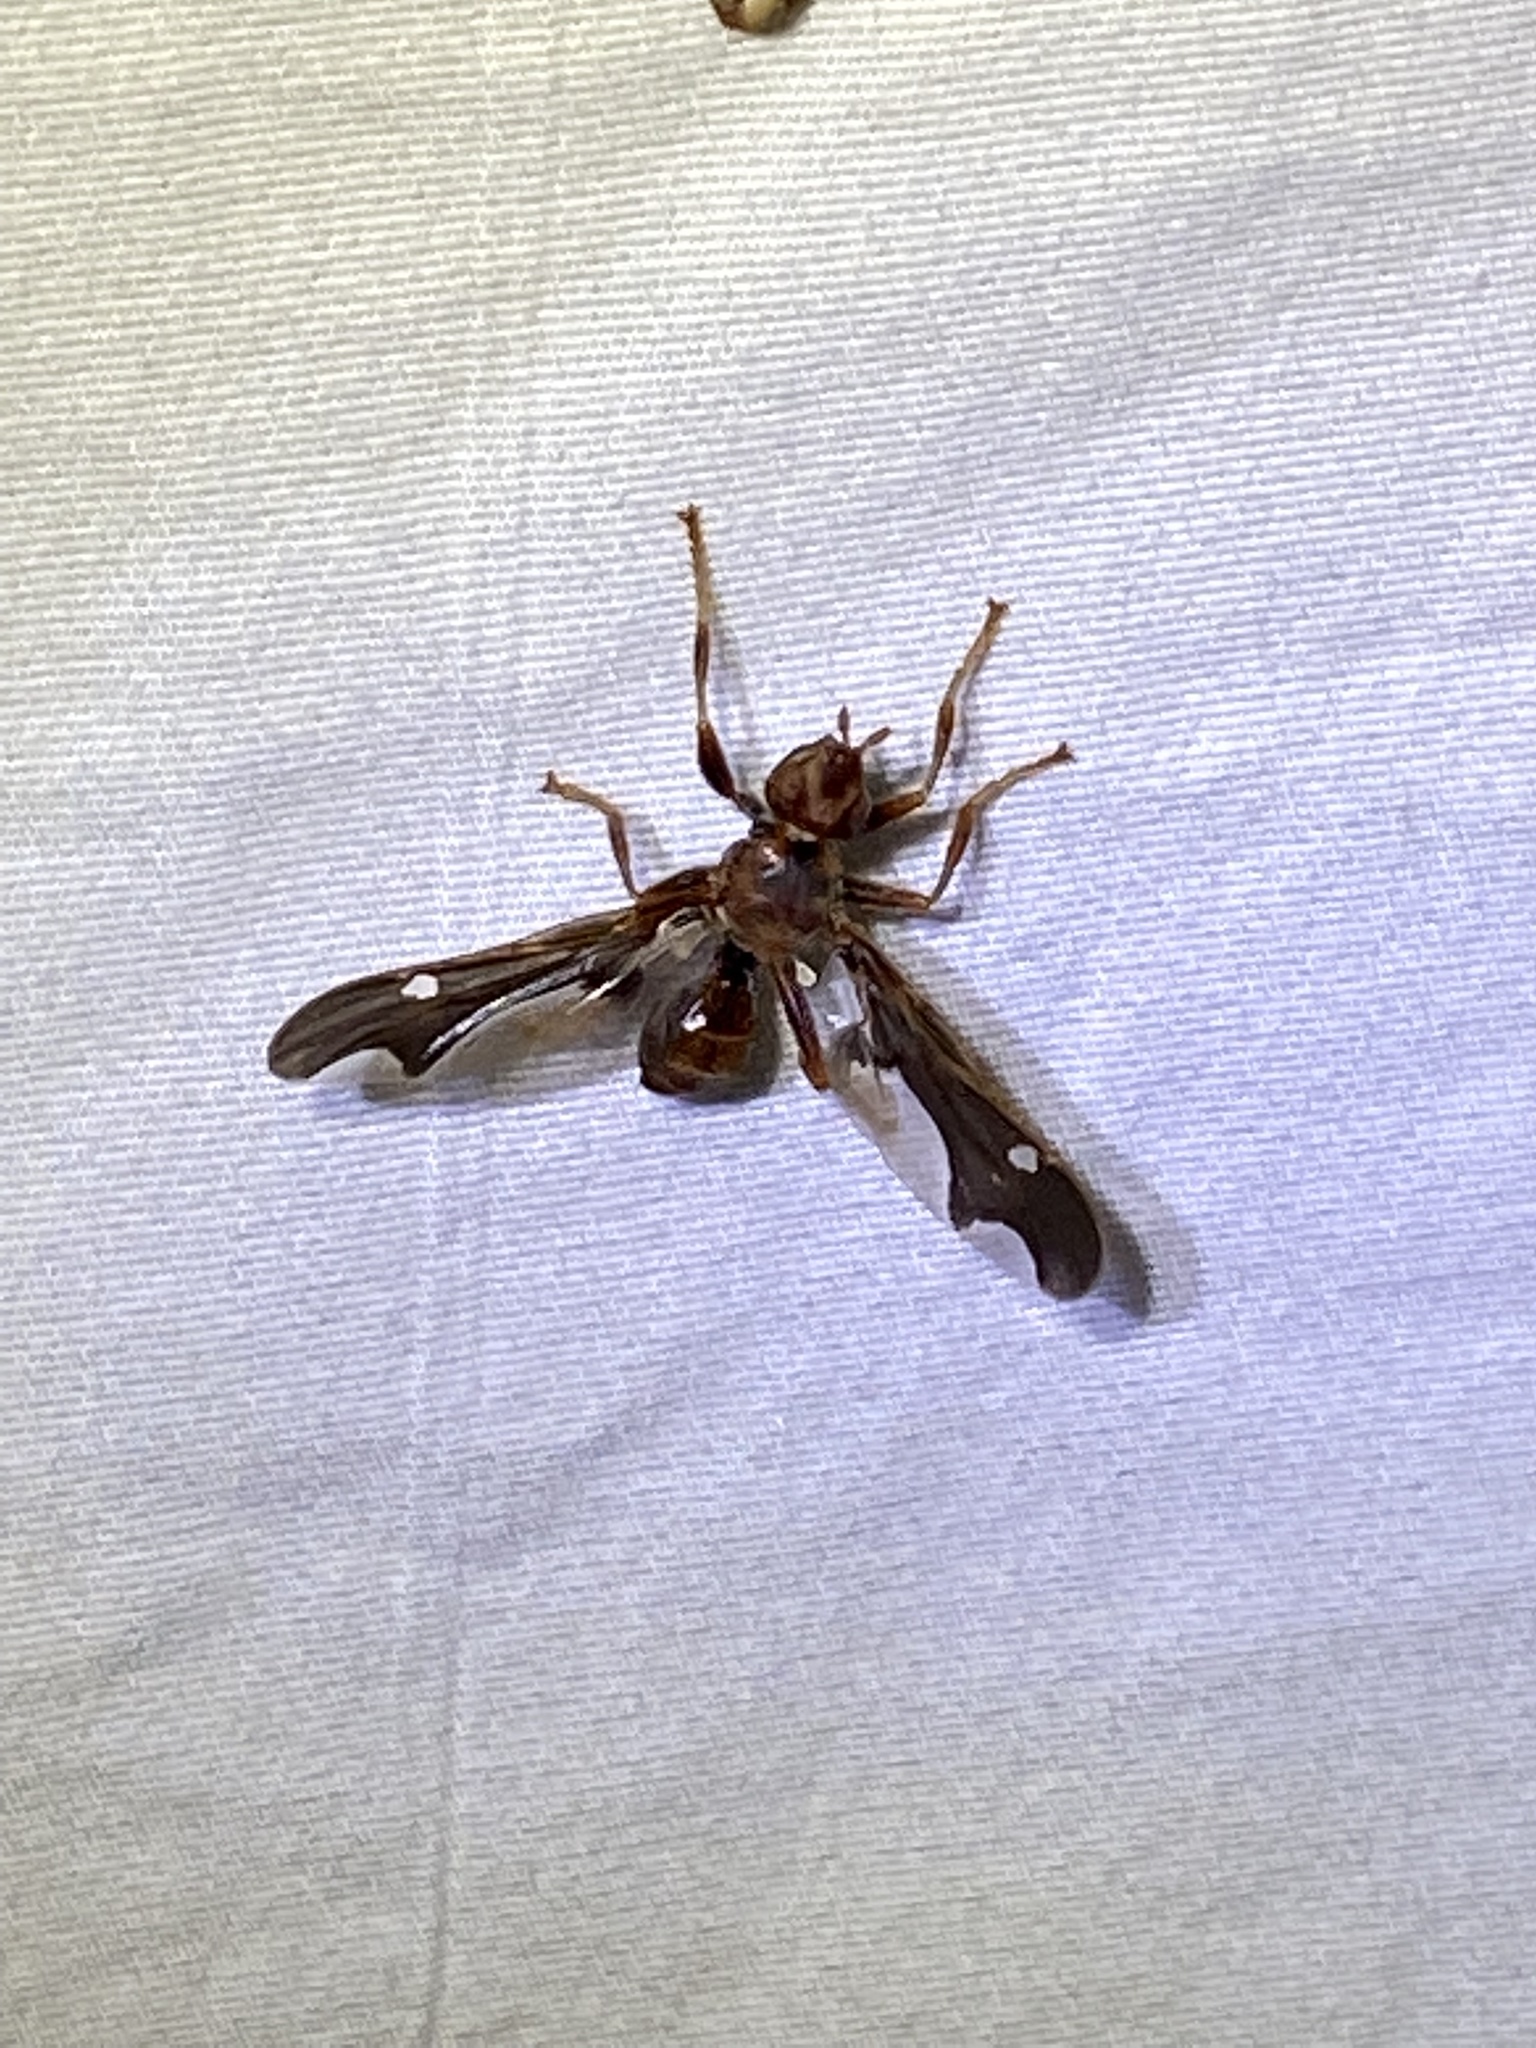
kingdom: Animalia
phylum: Arthropoda
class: Insecta
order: Diptera
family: Pyrgotidae
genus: Pyrgota
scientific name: Pyrgota undata
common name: Waved light fly
